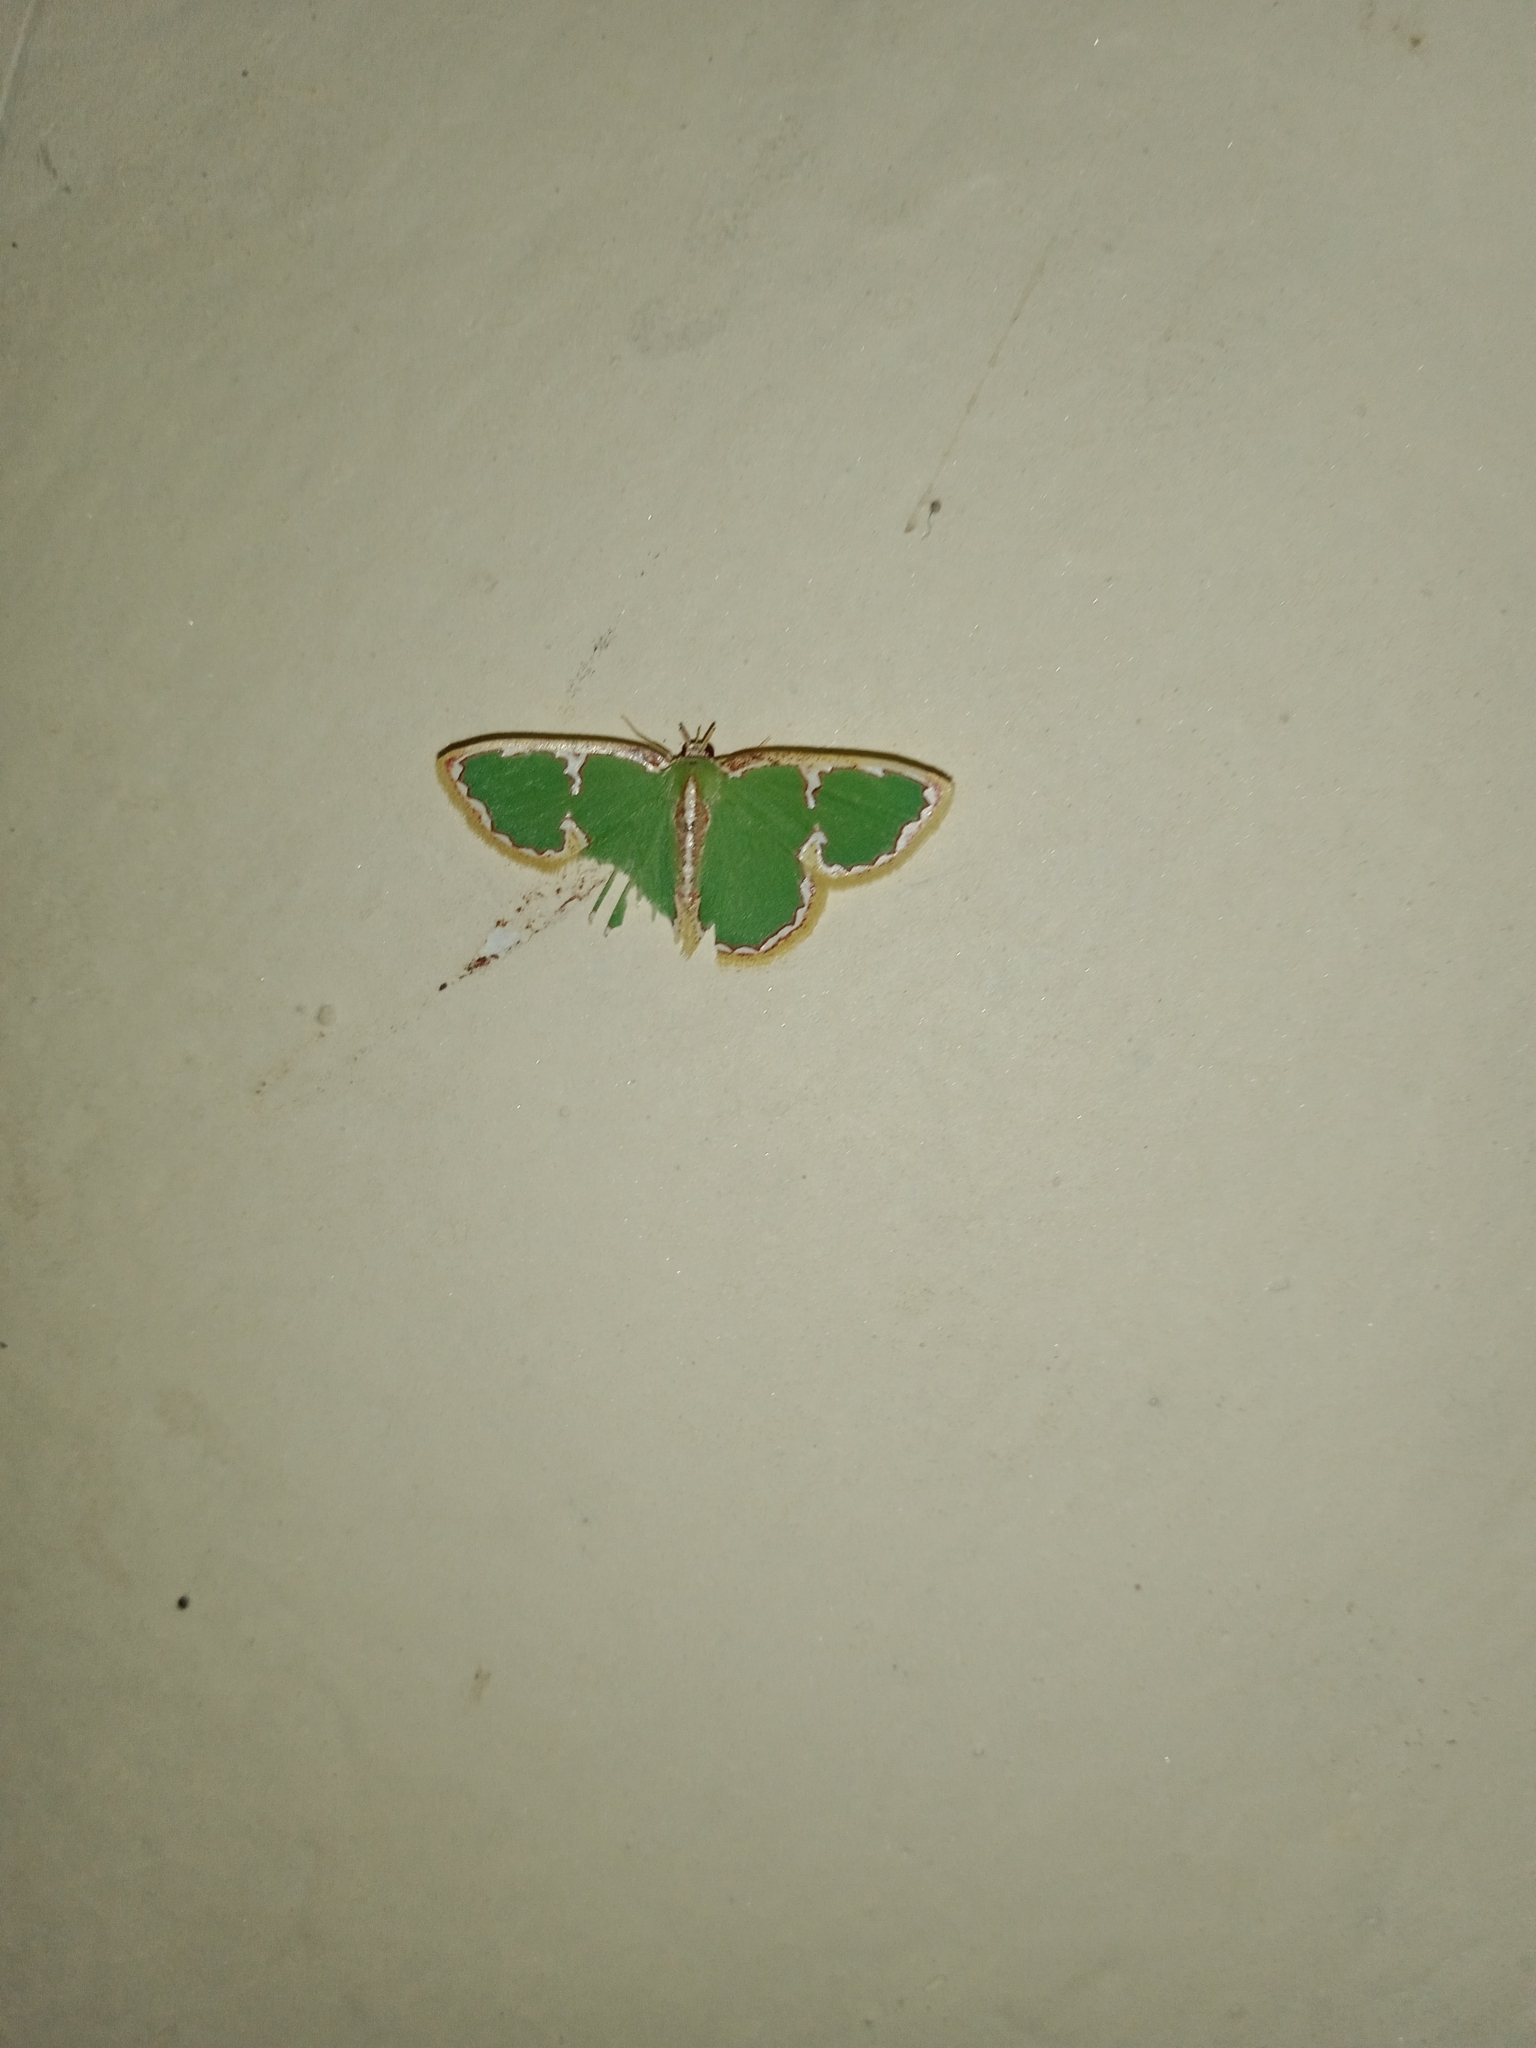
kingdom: Animalia
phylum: Arthropoda
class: Insecta
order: Lepidoptera
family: Geometridae
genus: Comostola
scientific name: Comostola chlorargyra
